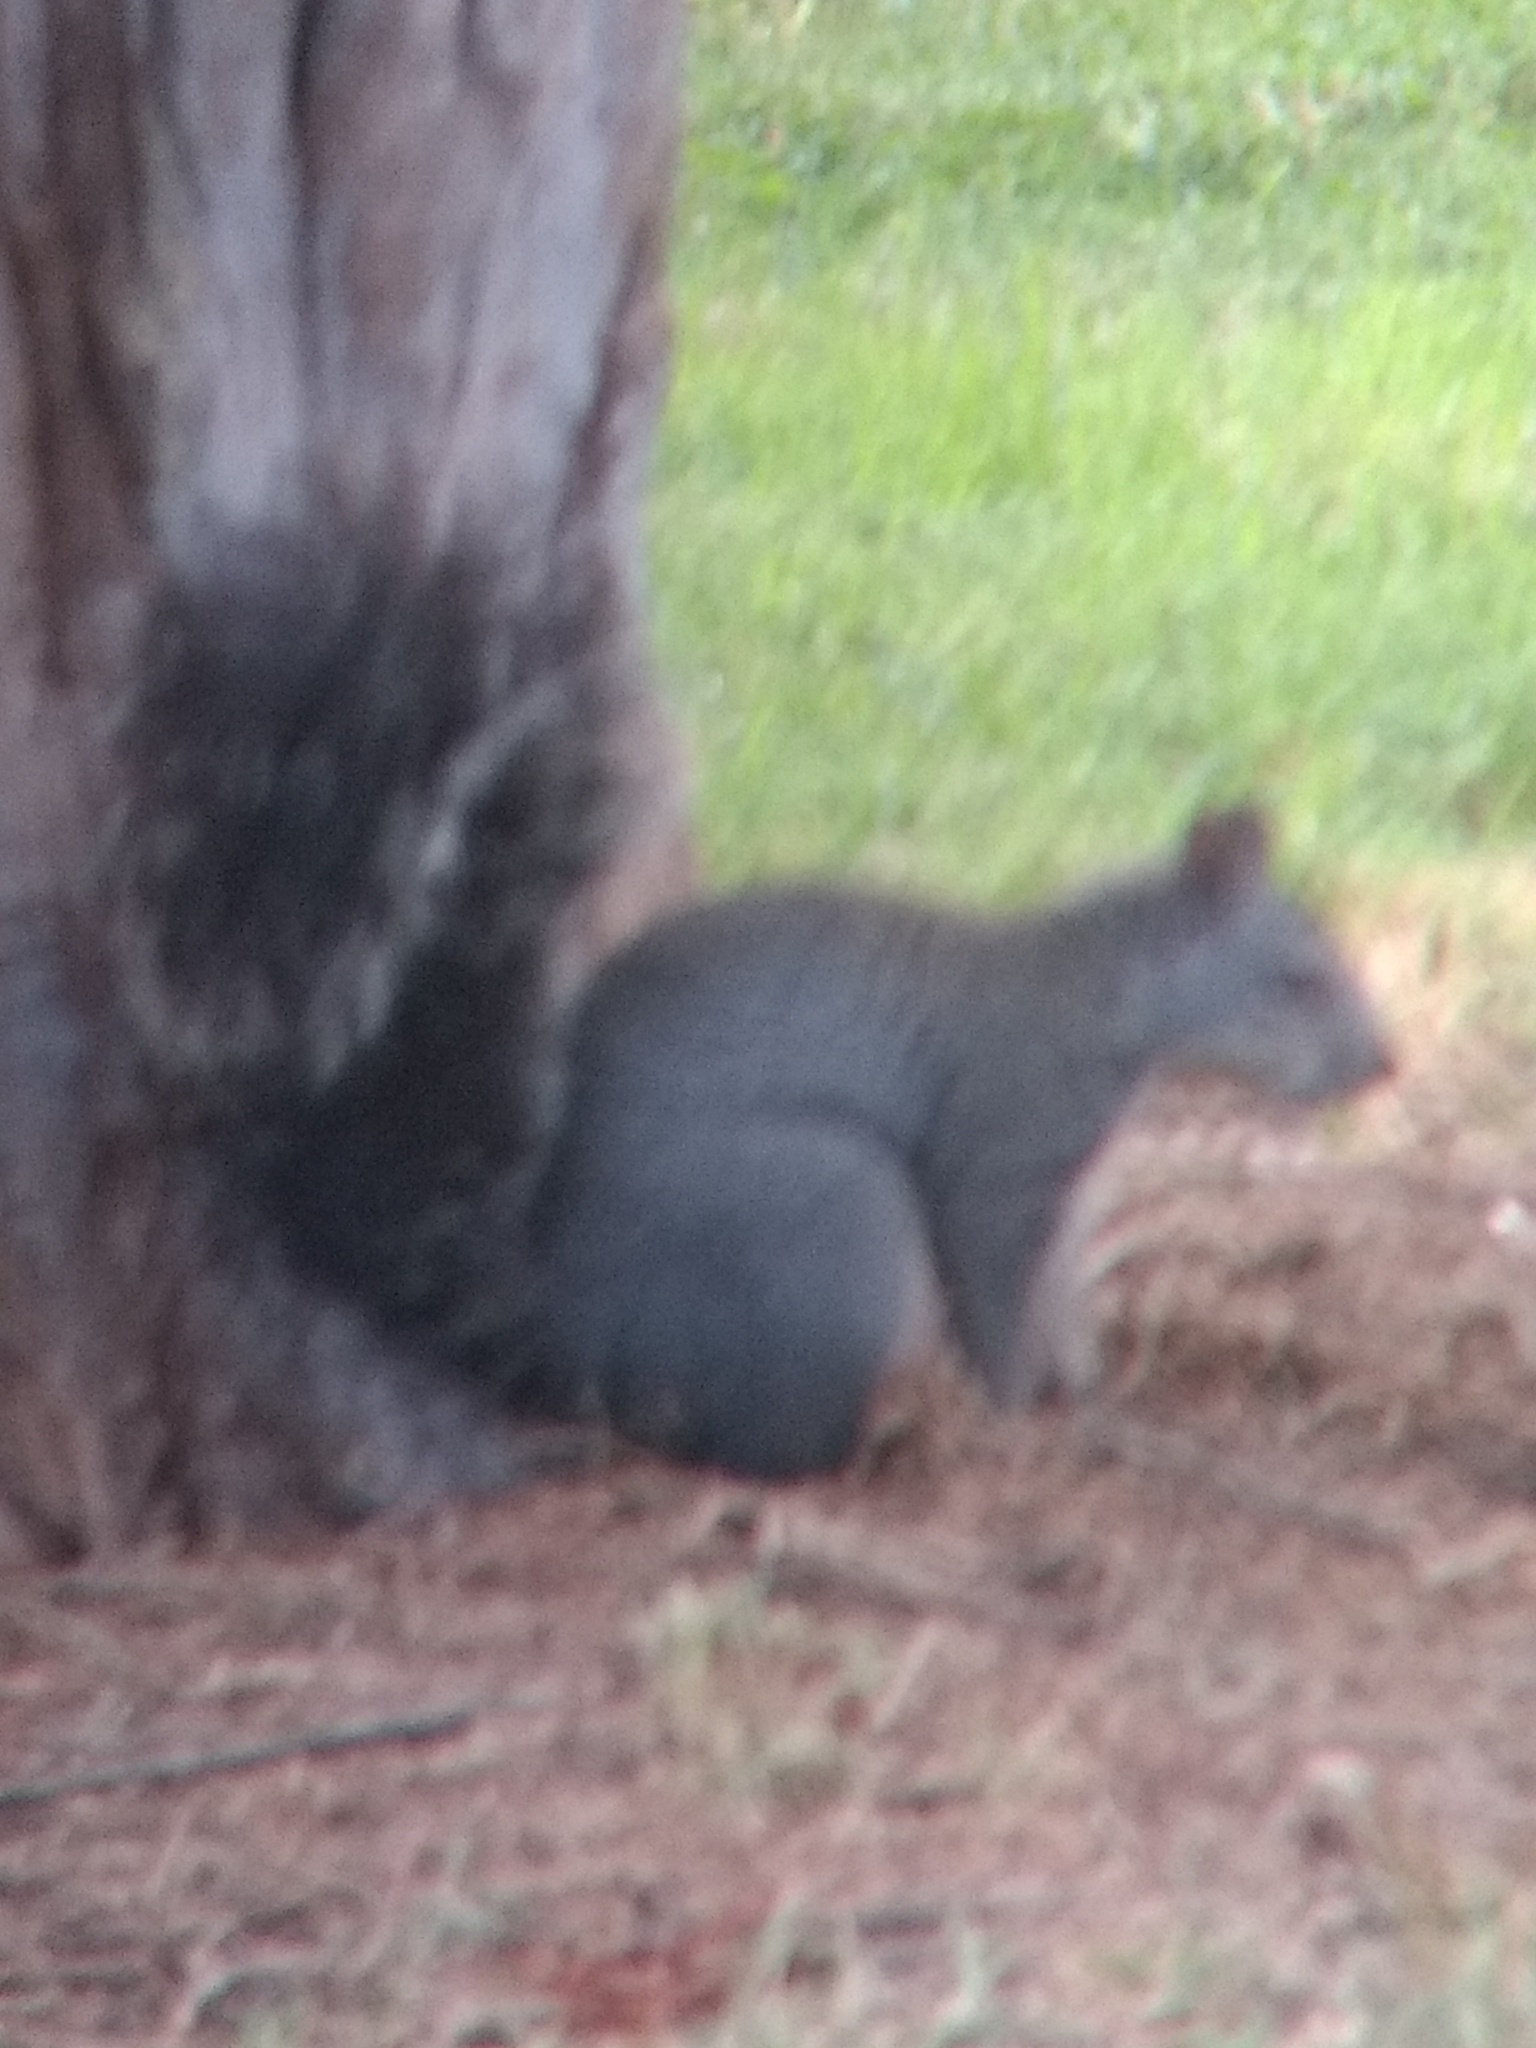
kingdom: Animalia
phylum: Chordata
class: Mammalia
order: Rodentia
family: Sciuridae
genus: Sciurus
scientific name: Sciurus griseus
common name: Western gray squirrel
